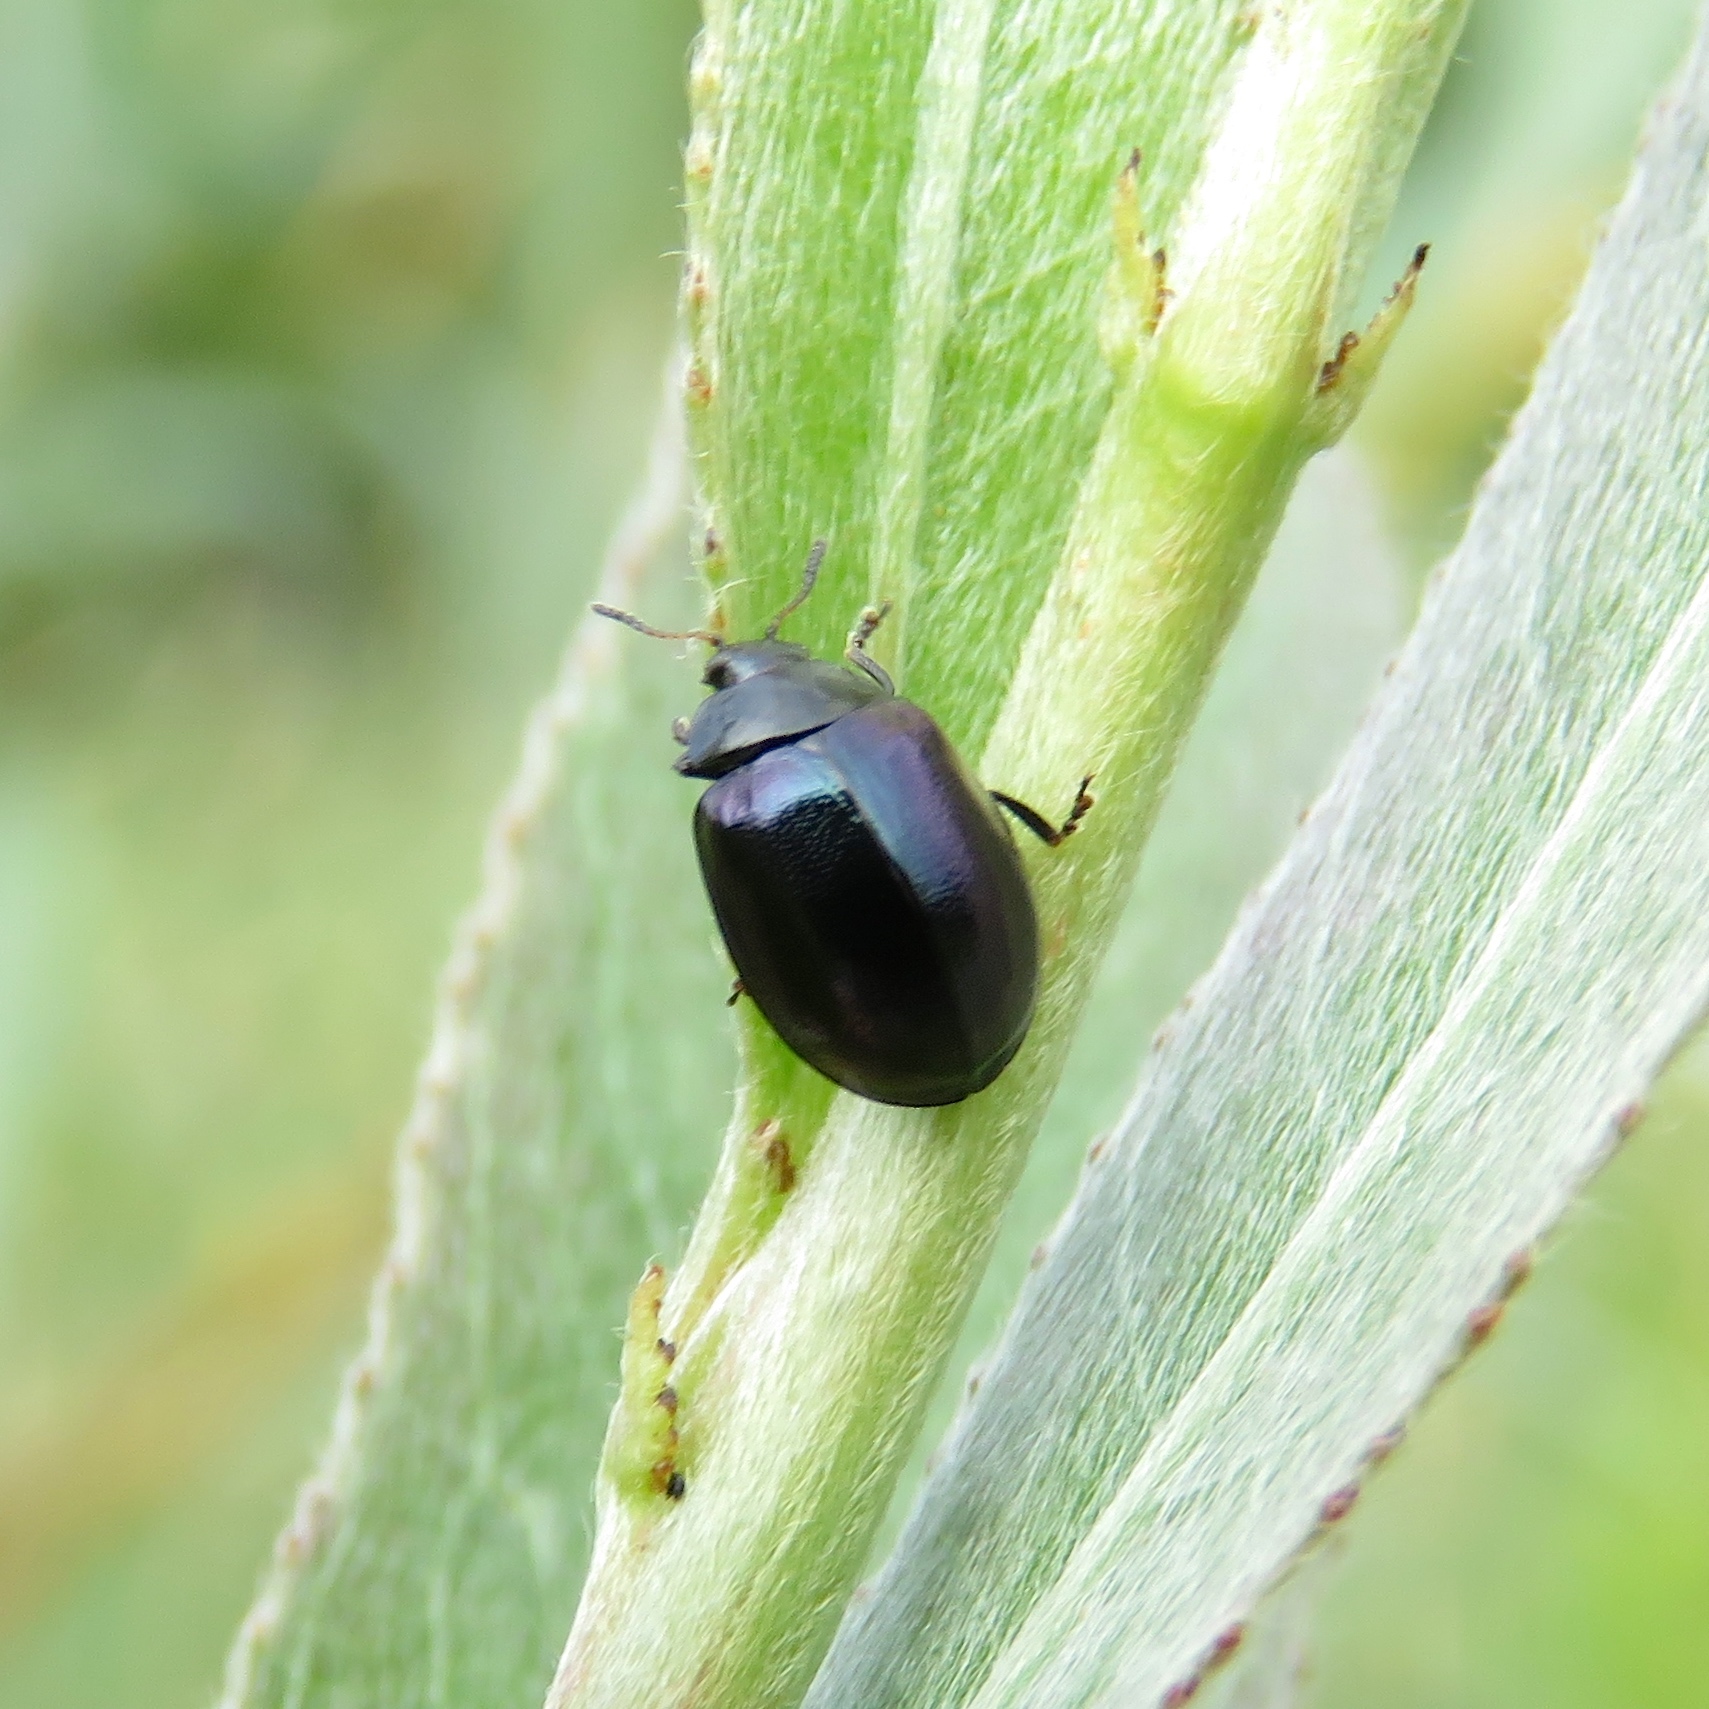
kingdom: Animalia
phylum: Arthropoda
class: Insecta
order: Coleoptera
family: Chrysomelidae
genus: Plagiodera
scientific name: Plagiodera versicolora
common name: Imported willow leaf beetle
